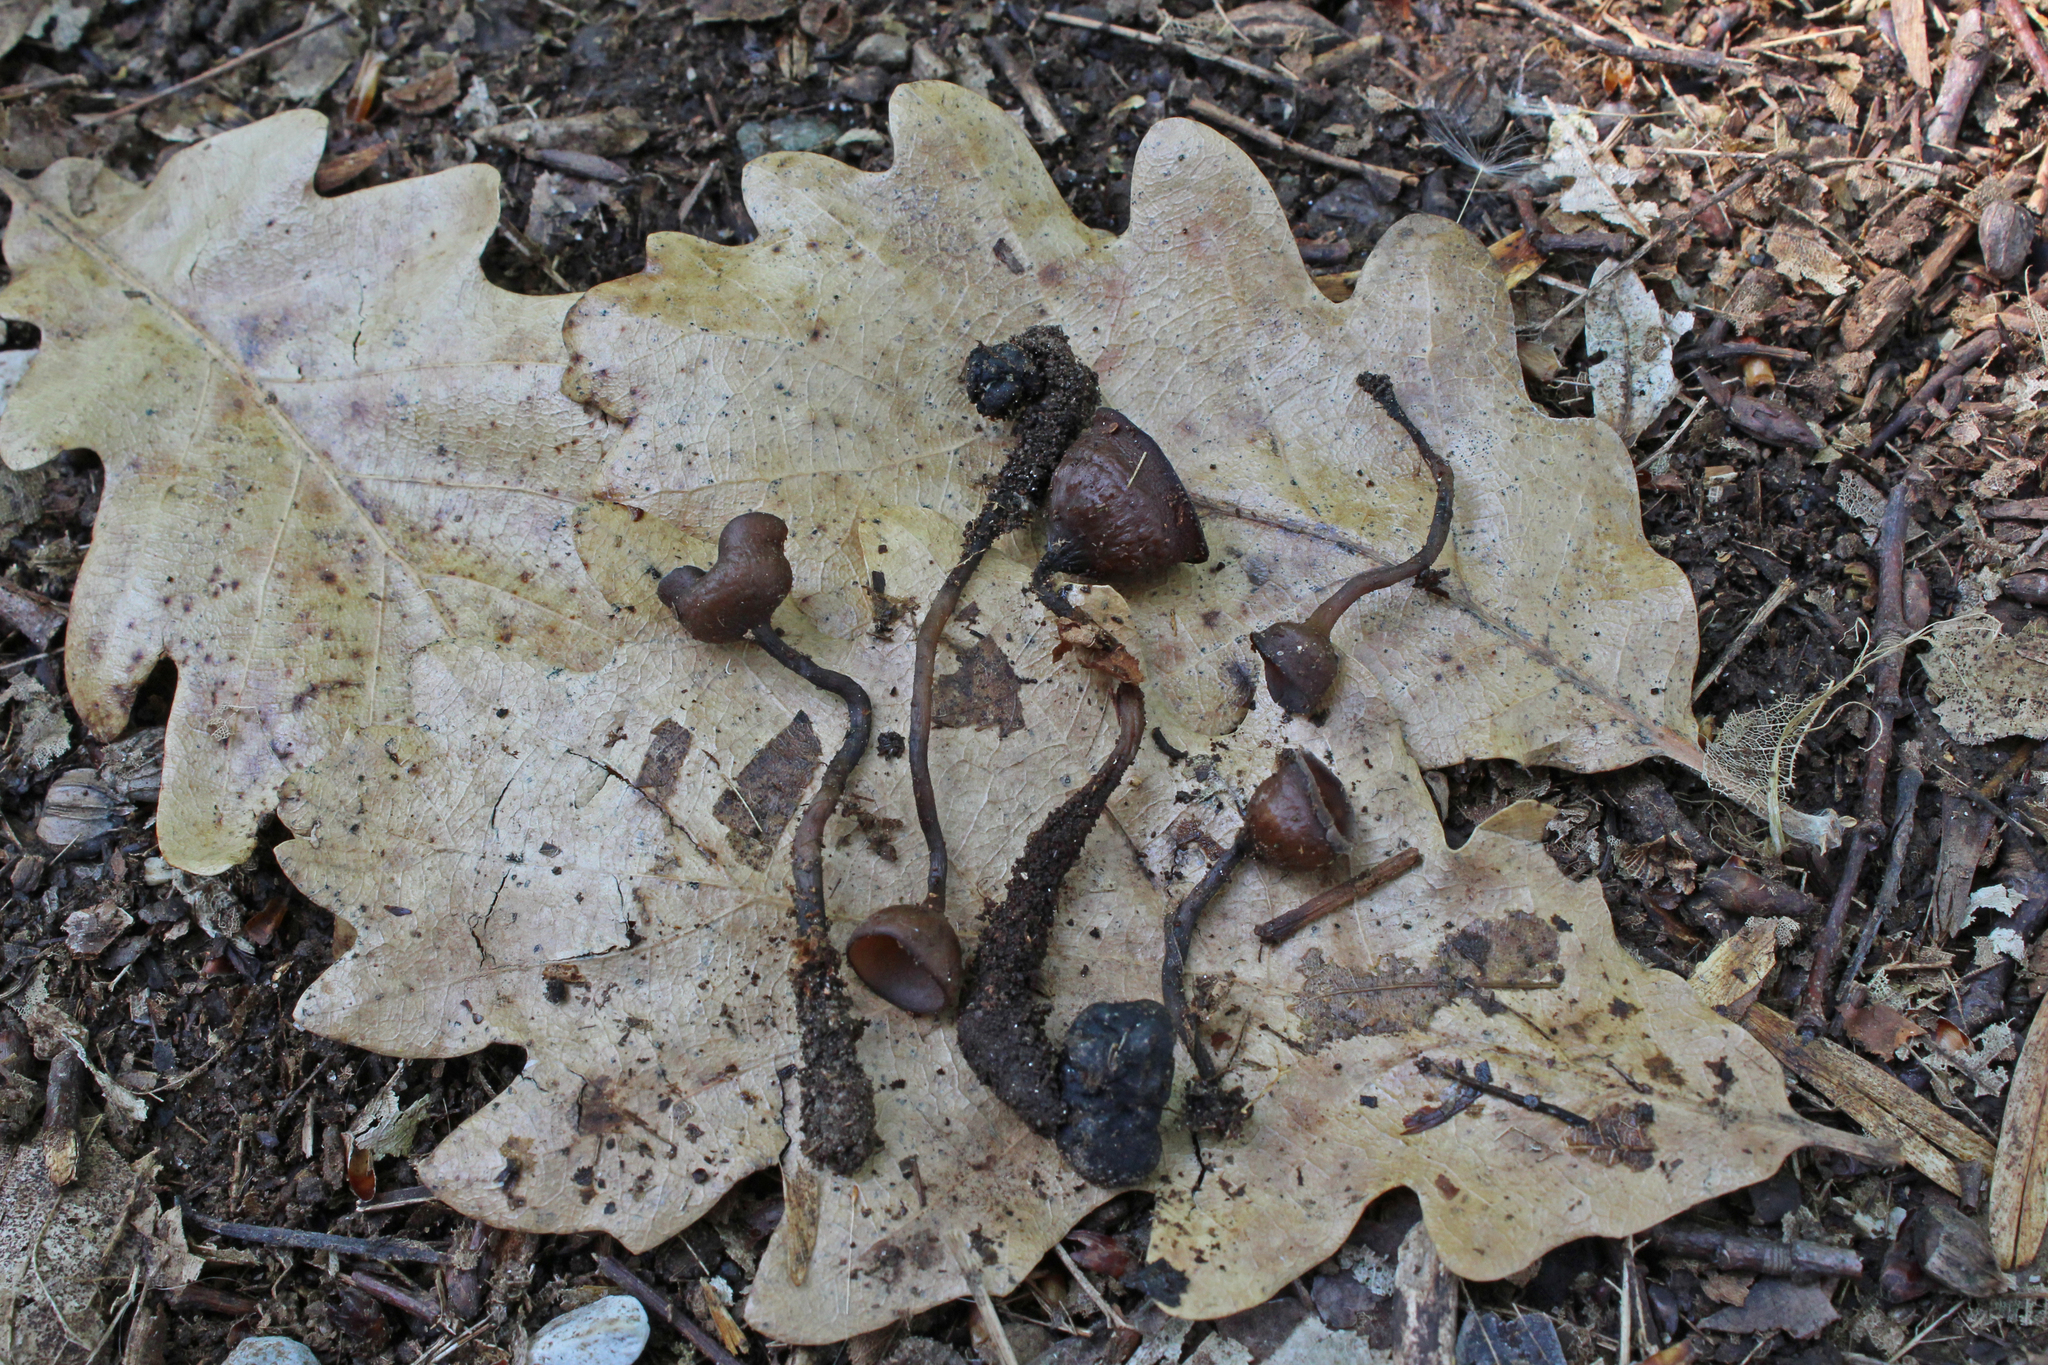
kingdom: Fungi
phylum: Ascomycota
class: Leotiomycetes
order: Helotiales
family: Sclerotiniaceae
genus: Dumontinia
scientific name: Dumontinia tuberosa
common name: Anemone cup
